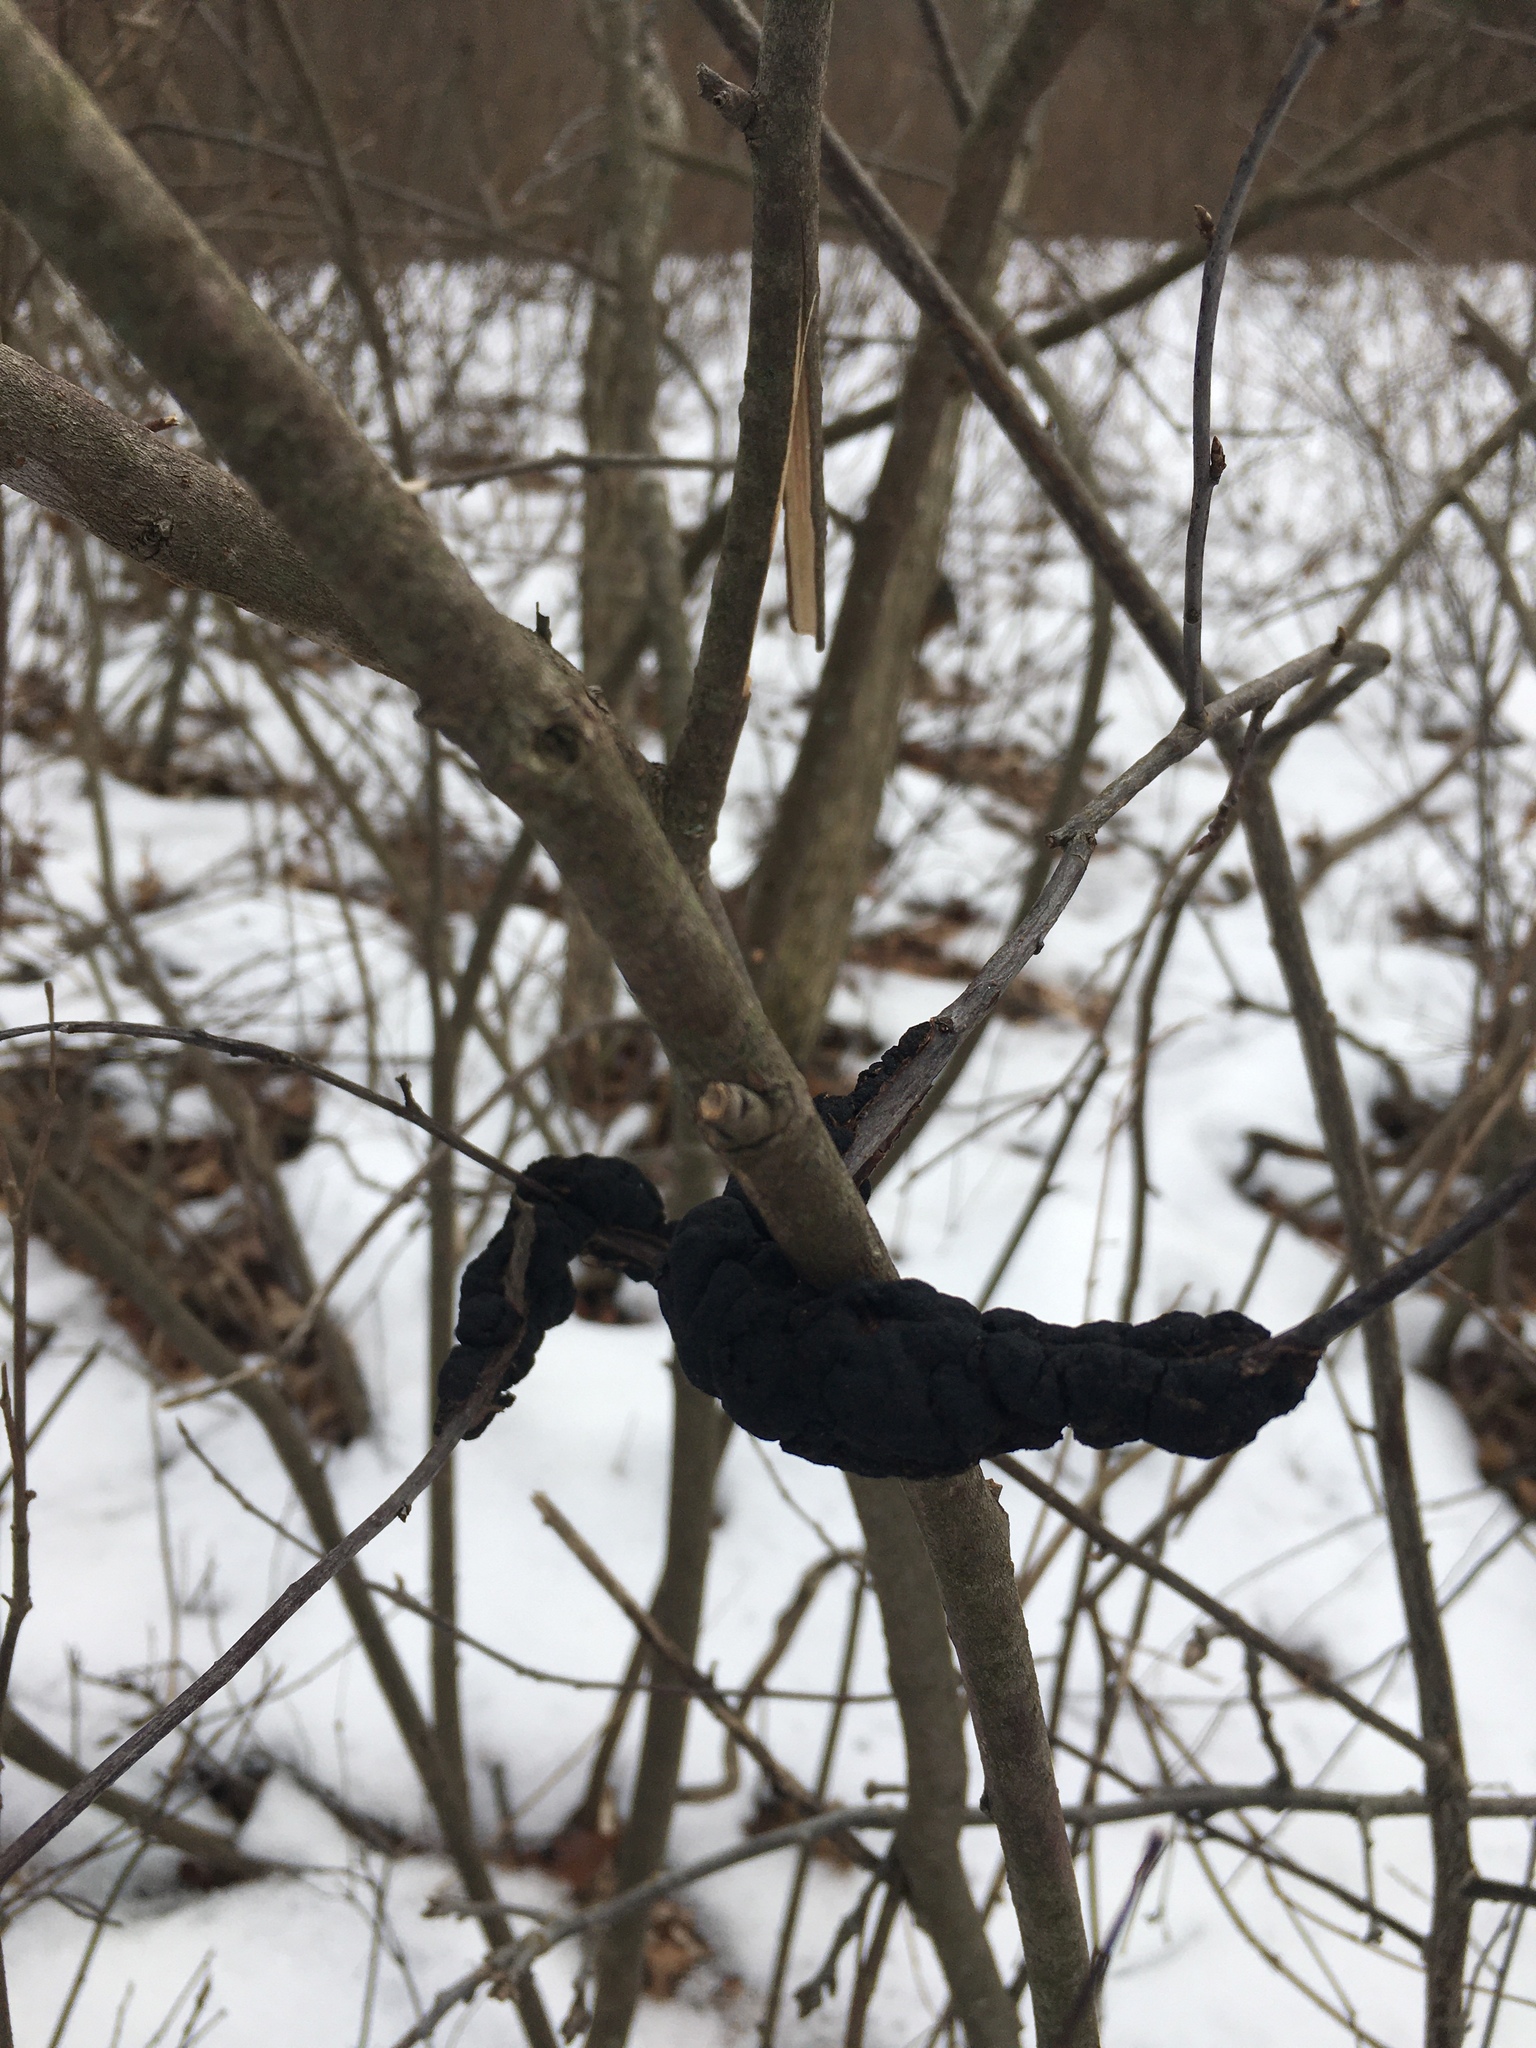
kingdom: Fungi
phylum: Ascomycota
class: Dothideomycetes
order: Venturiales
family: Venturiaceae
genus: Apiosporina
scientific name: Apiosporina morbosa
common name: Black knot
